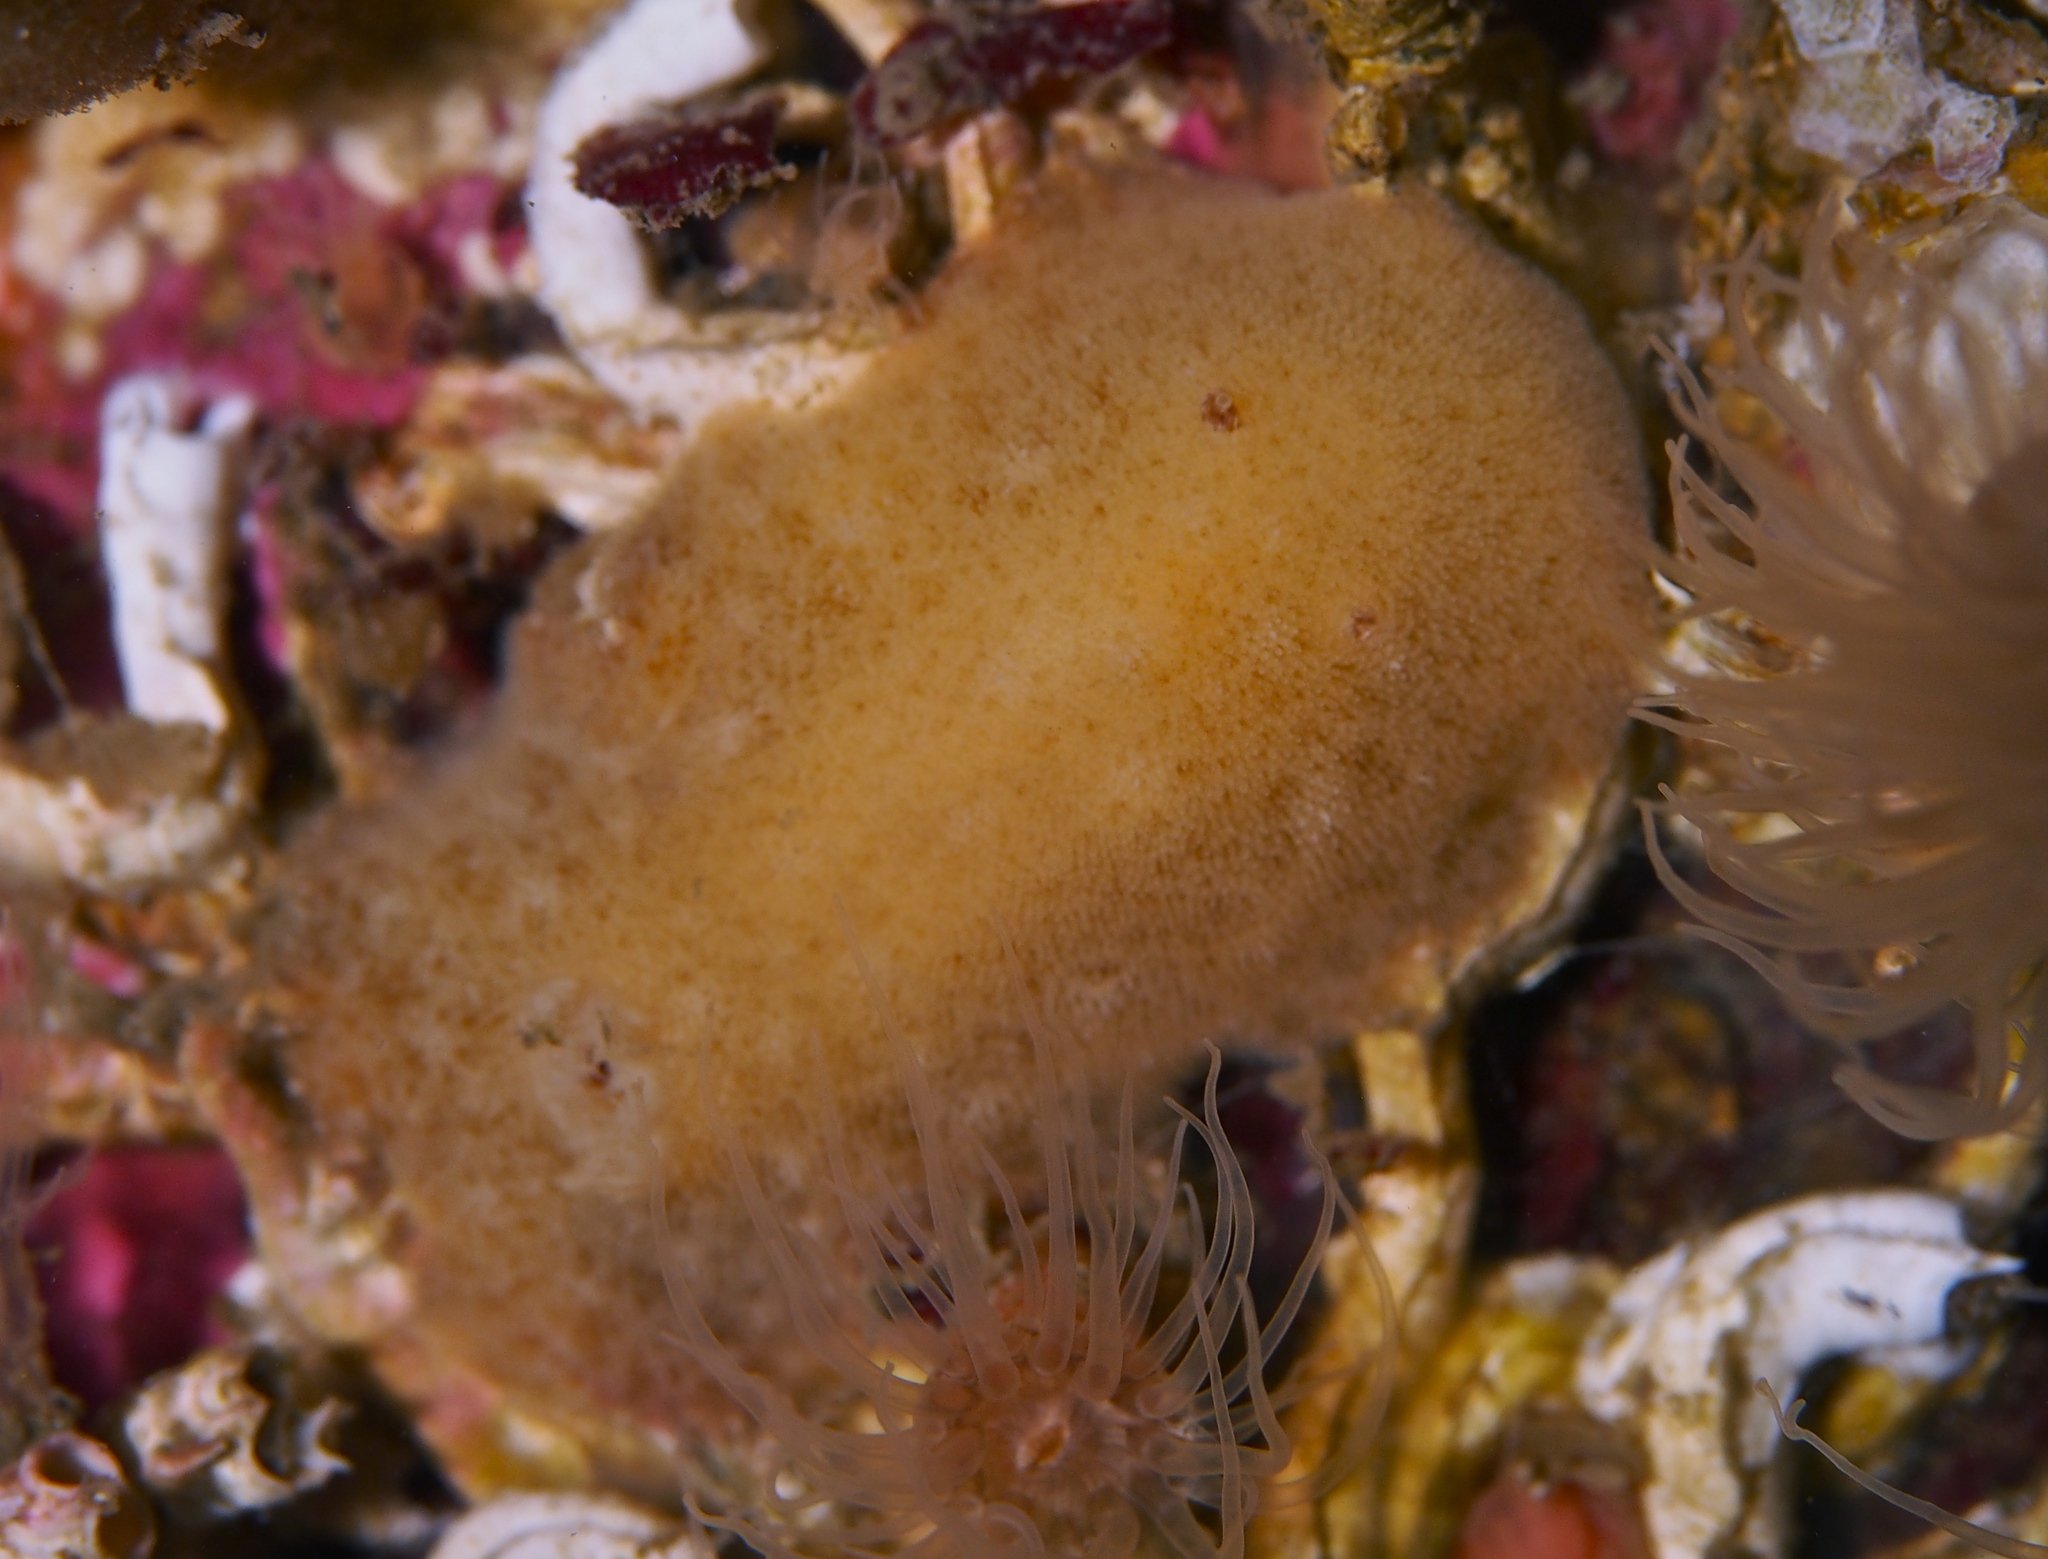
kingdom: Animalia
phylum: Mollusca
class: Gastropoda
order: Nudibranchia
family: Discodorididae
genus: Jorunna
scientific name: Jorunna tomentosa
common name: Grey sea slug
